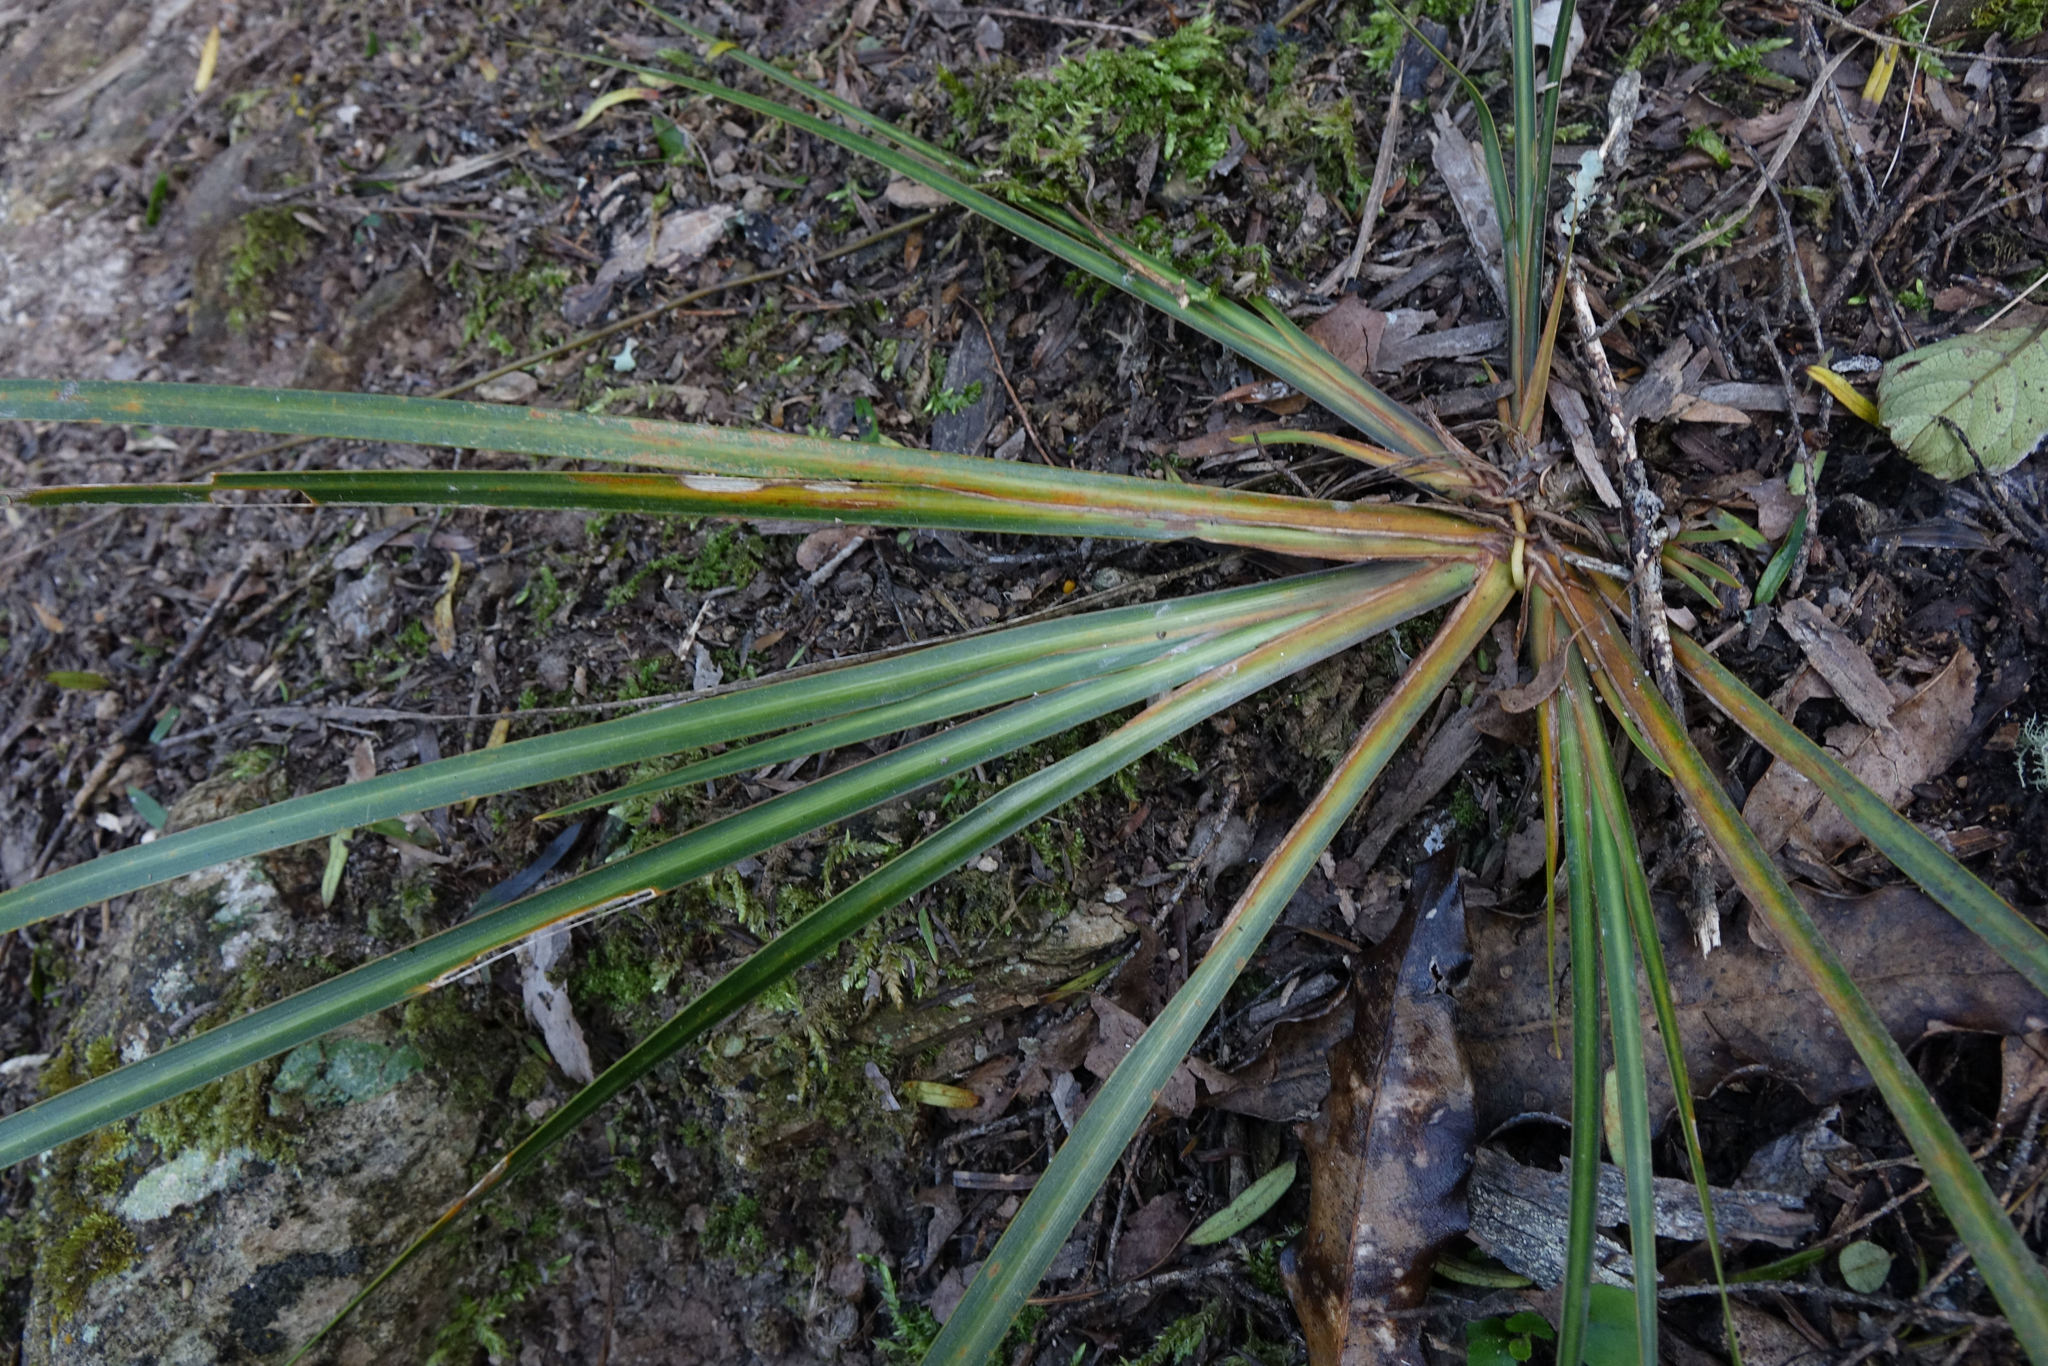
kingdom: Plantae
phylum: Tracheophyta
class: Liliopsida
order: Asparagales
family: Iridaceae
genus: Libertia
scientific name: Libertia ixioides
